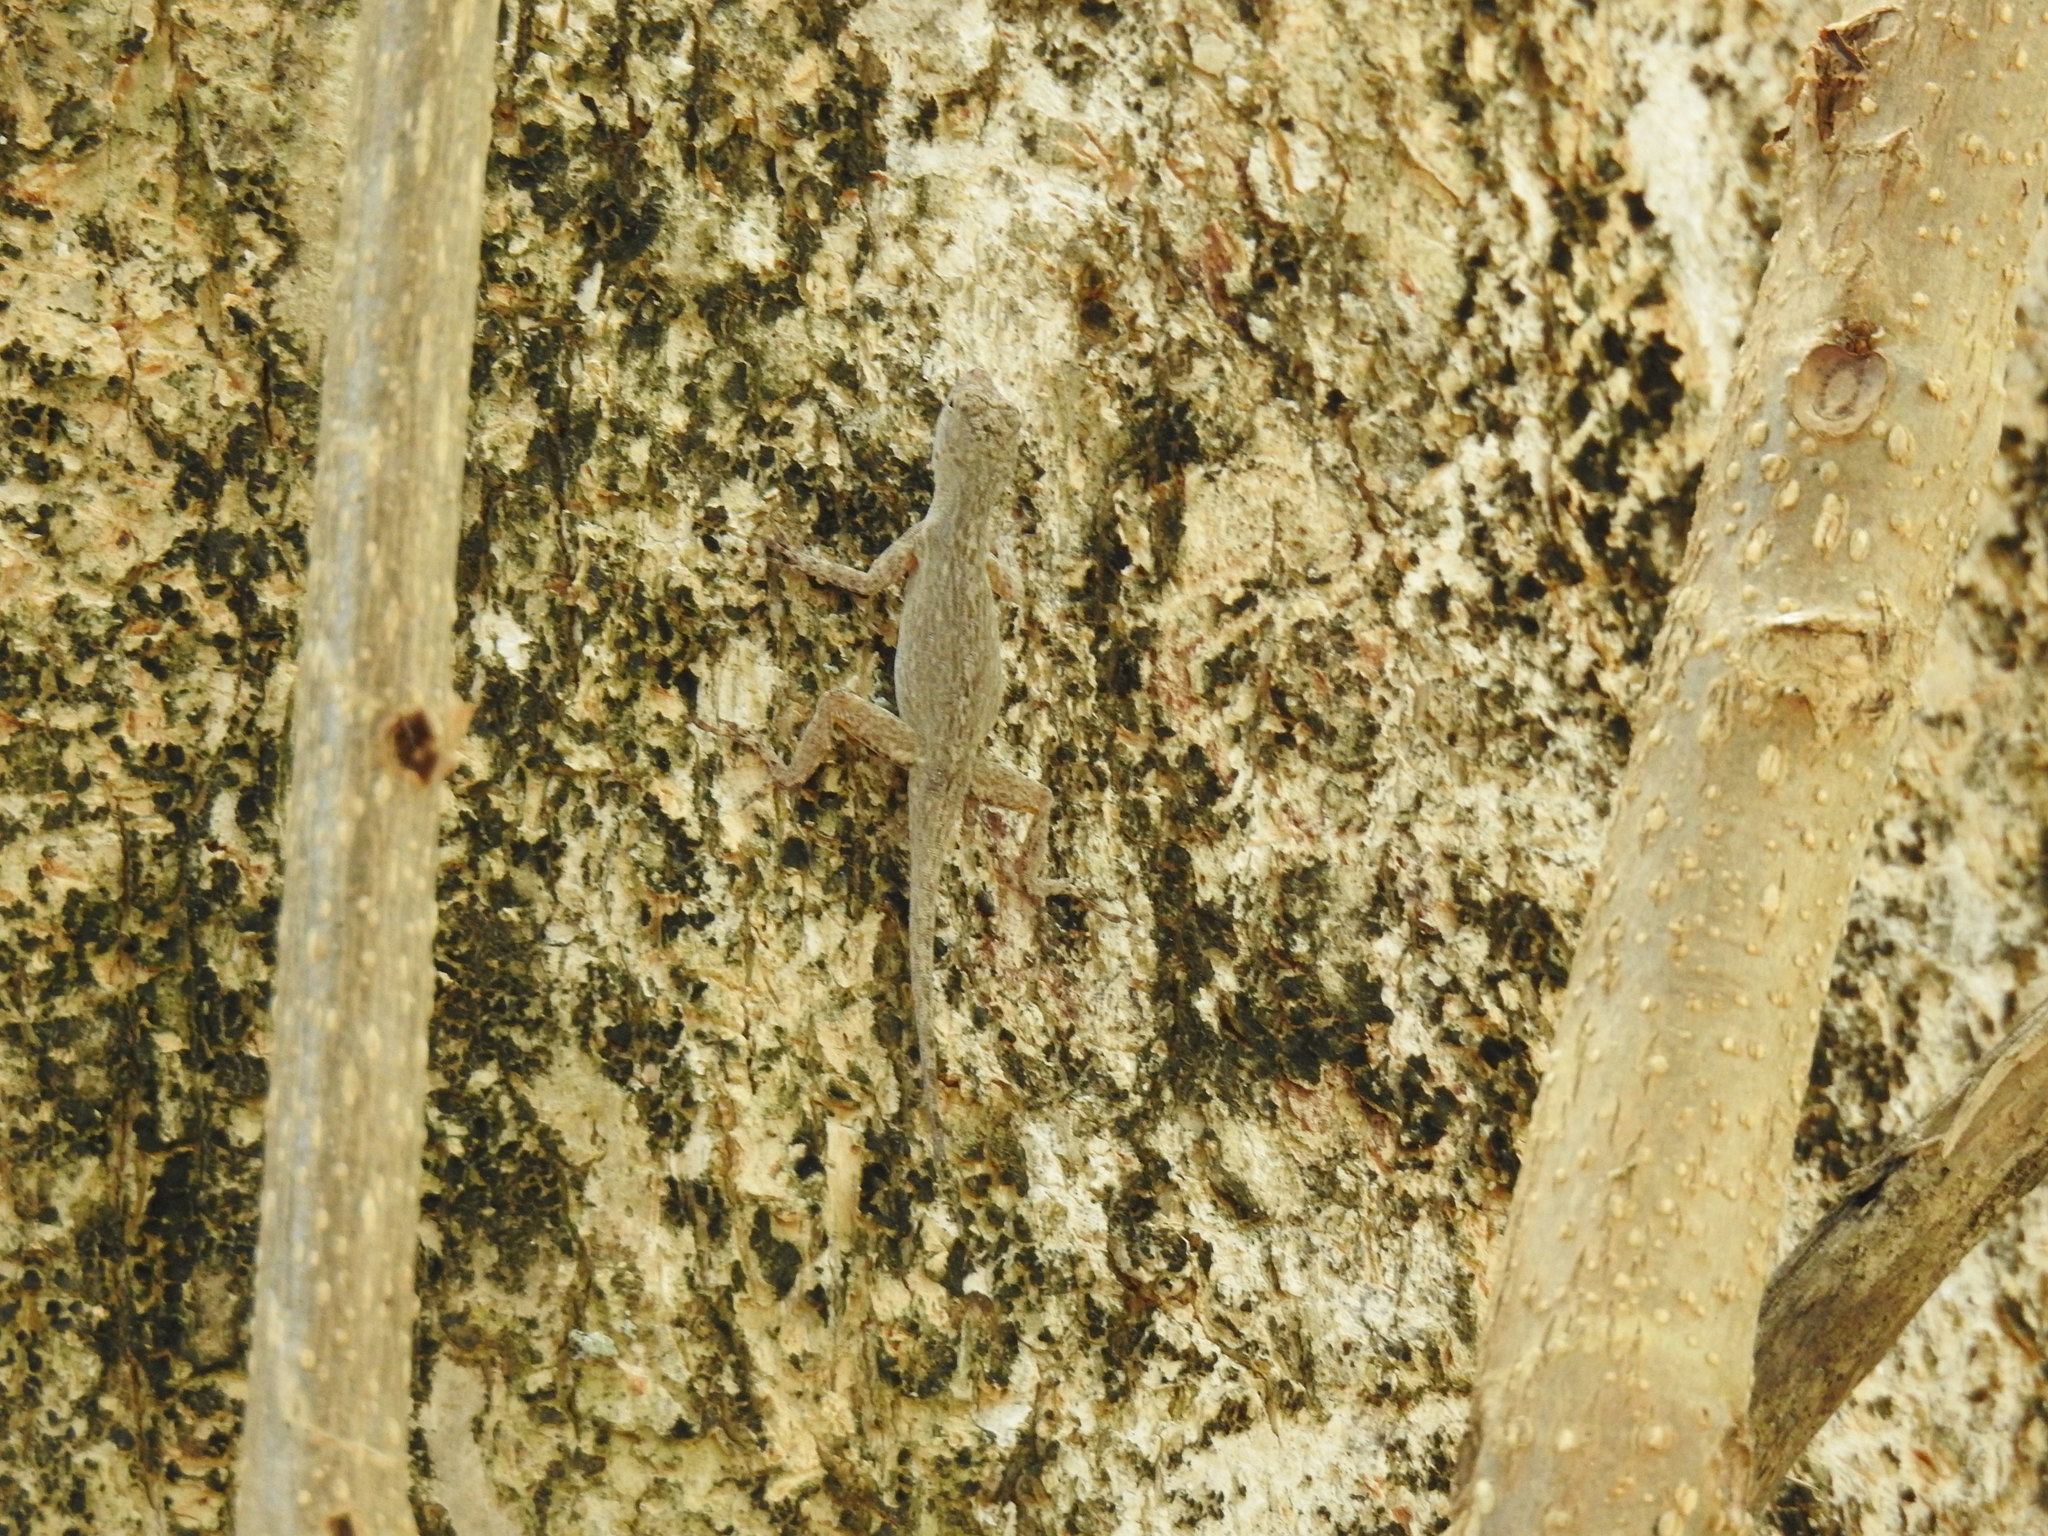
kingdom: Animalia
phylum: Chordata
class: Squamata
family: Dactyloidae
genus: Anolis
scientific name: Anolis distichus
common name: Bark anole
